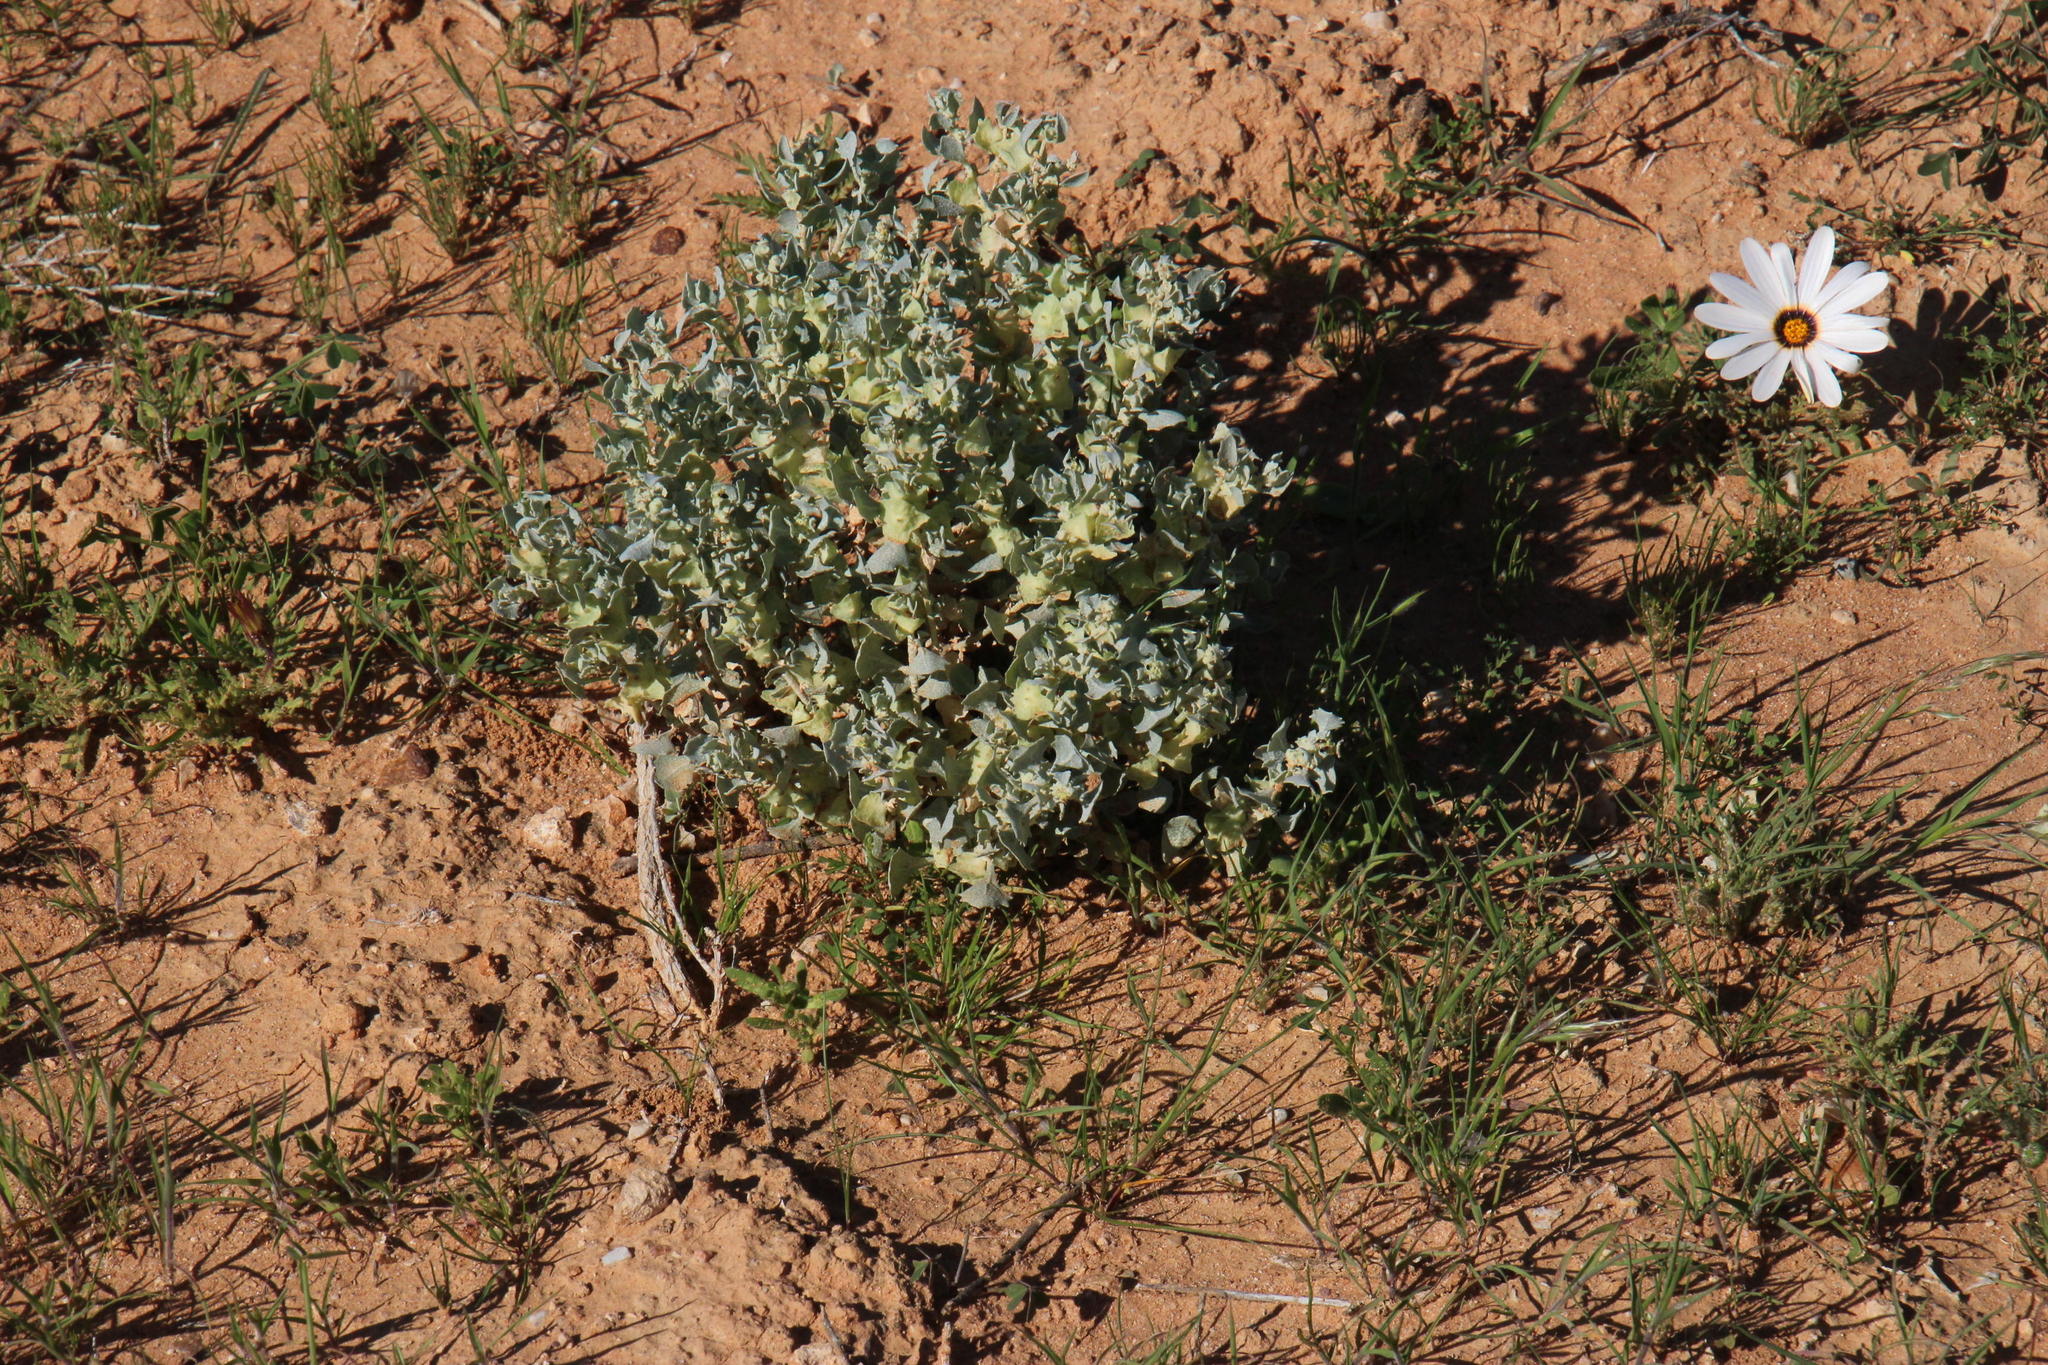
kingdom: Plantae
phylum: Tracheophyta
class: Magnoliopsida
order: Caryophyllales
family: Amaranthaceae
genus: Atriplex
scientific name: Atriplex lindleyi
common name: Lindley's saltbush
